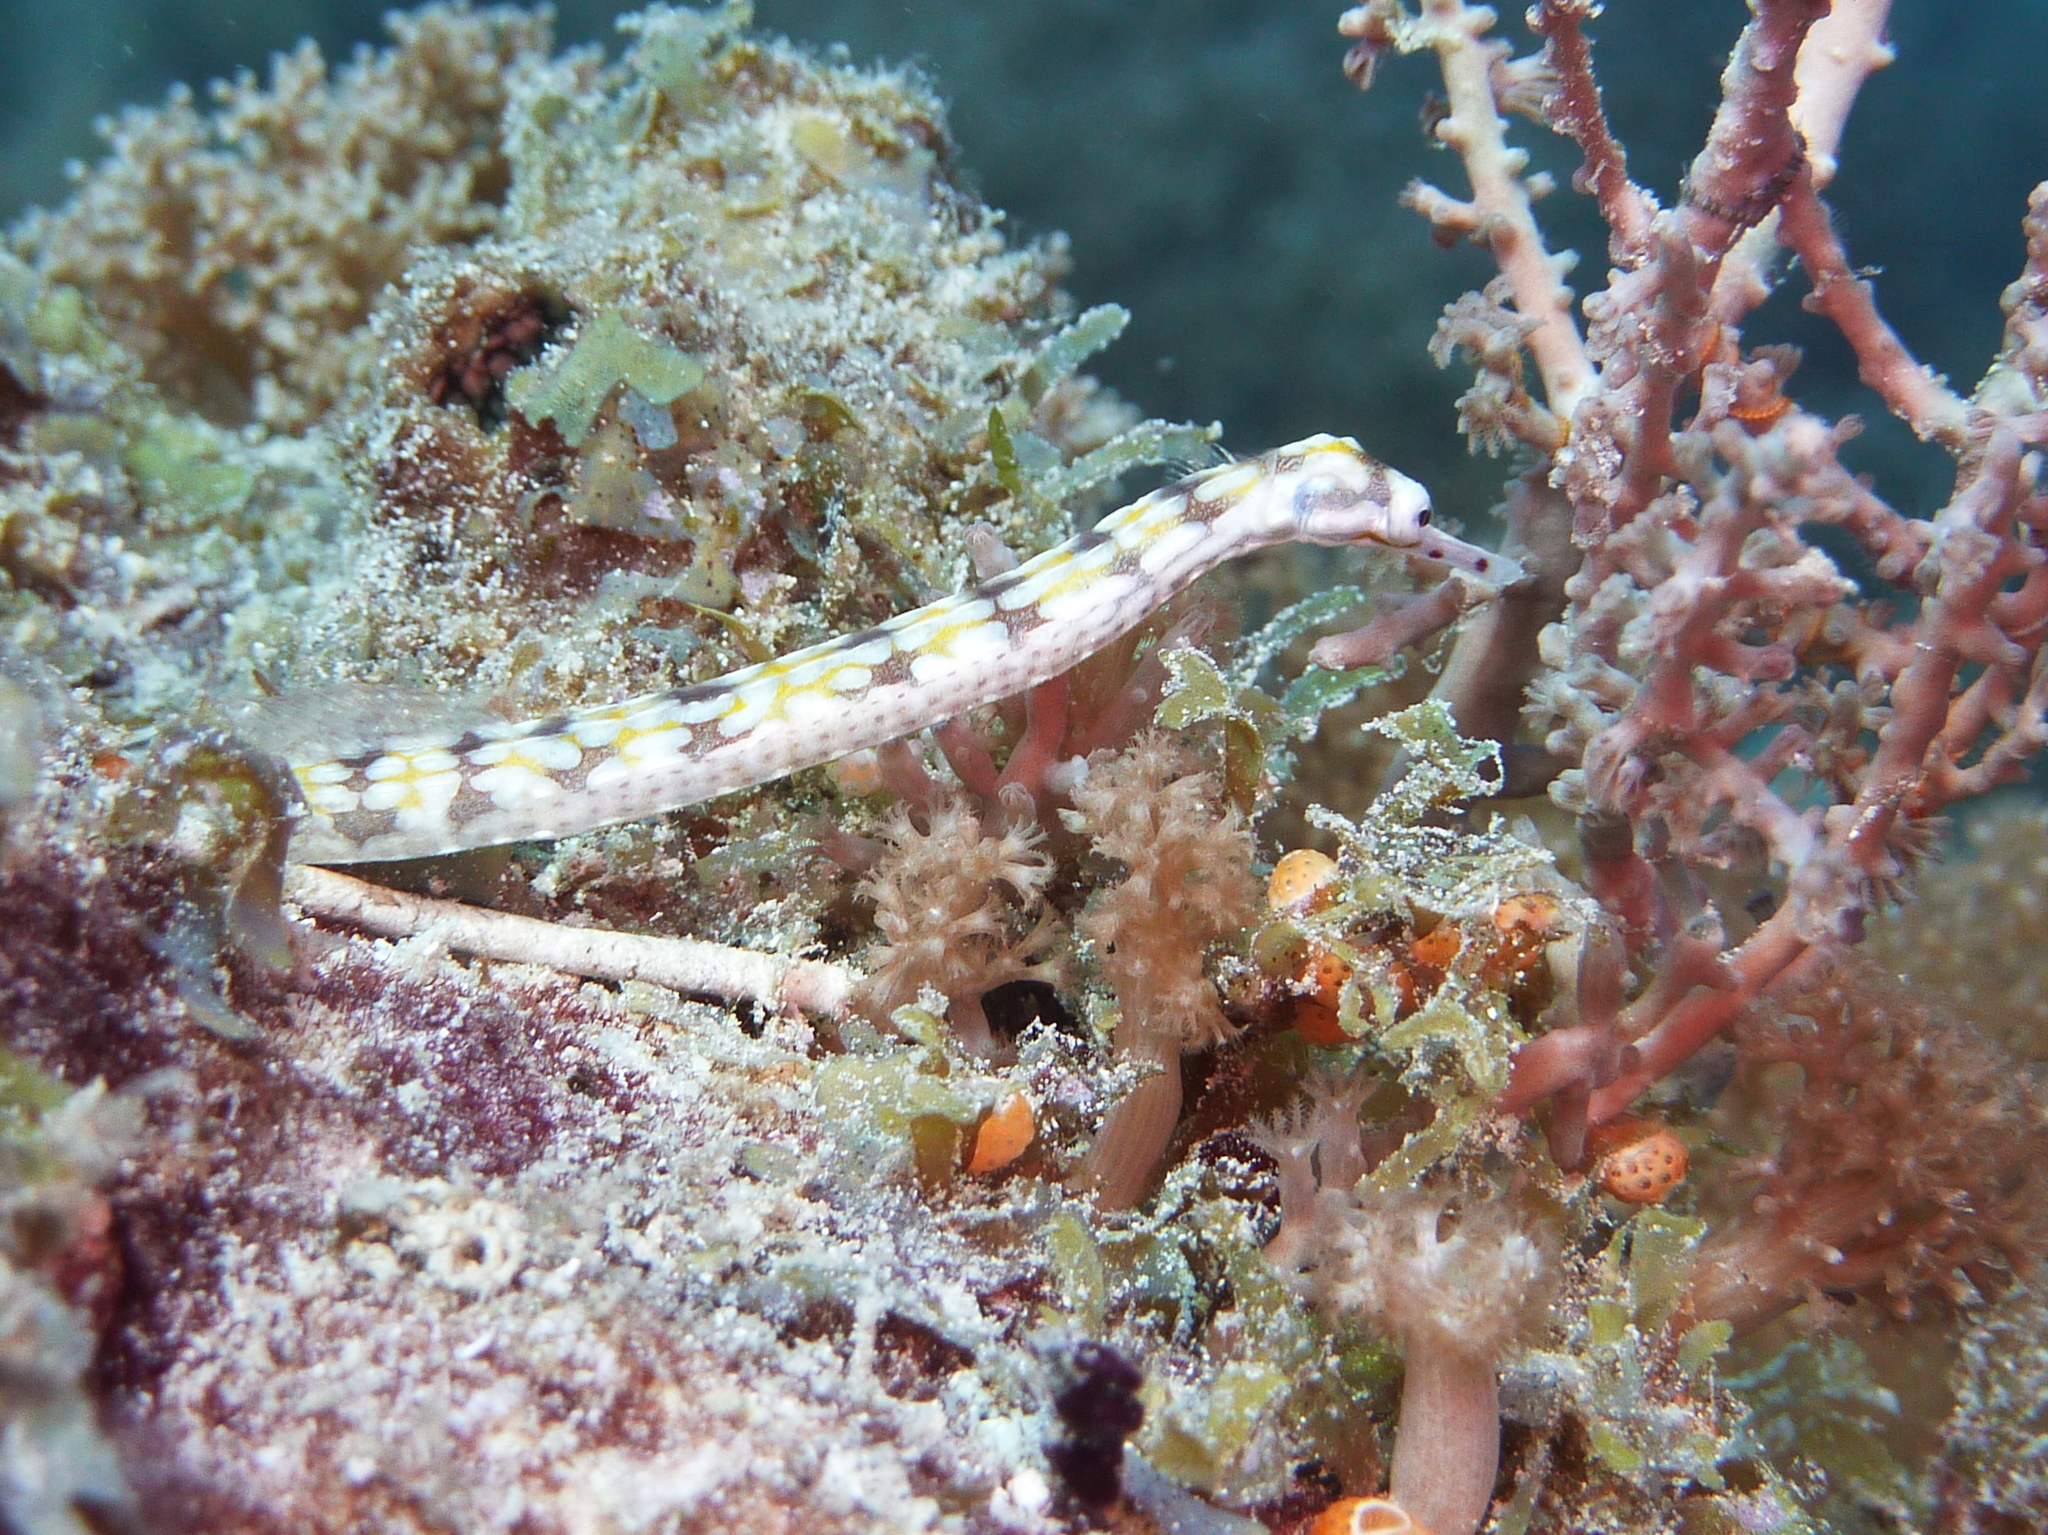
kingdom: Animalia
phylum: Chordata
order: Syngnathiformes
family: Syngnathidae
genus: Corythoichthys
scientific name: Corythoichthys flavofasciatus
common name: Banded pipefish
